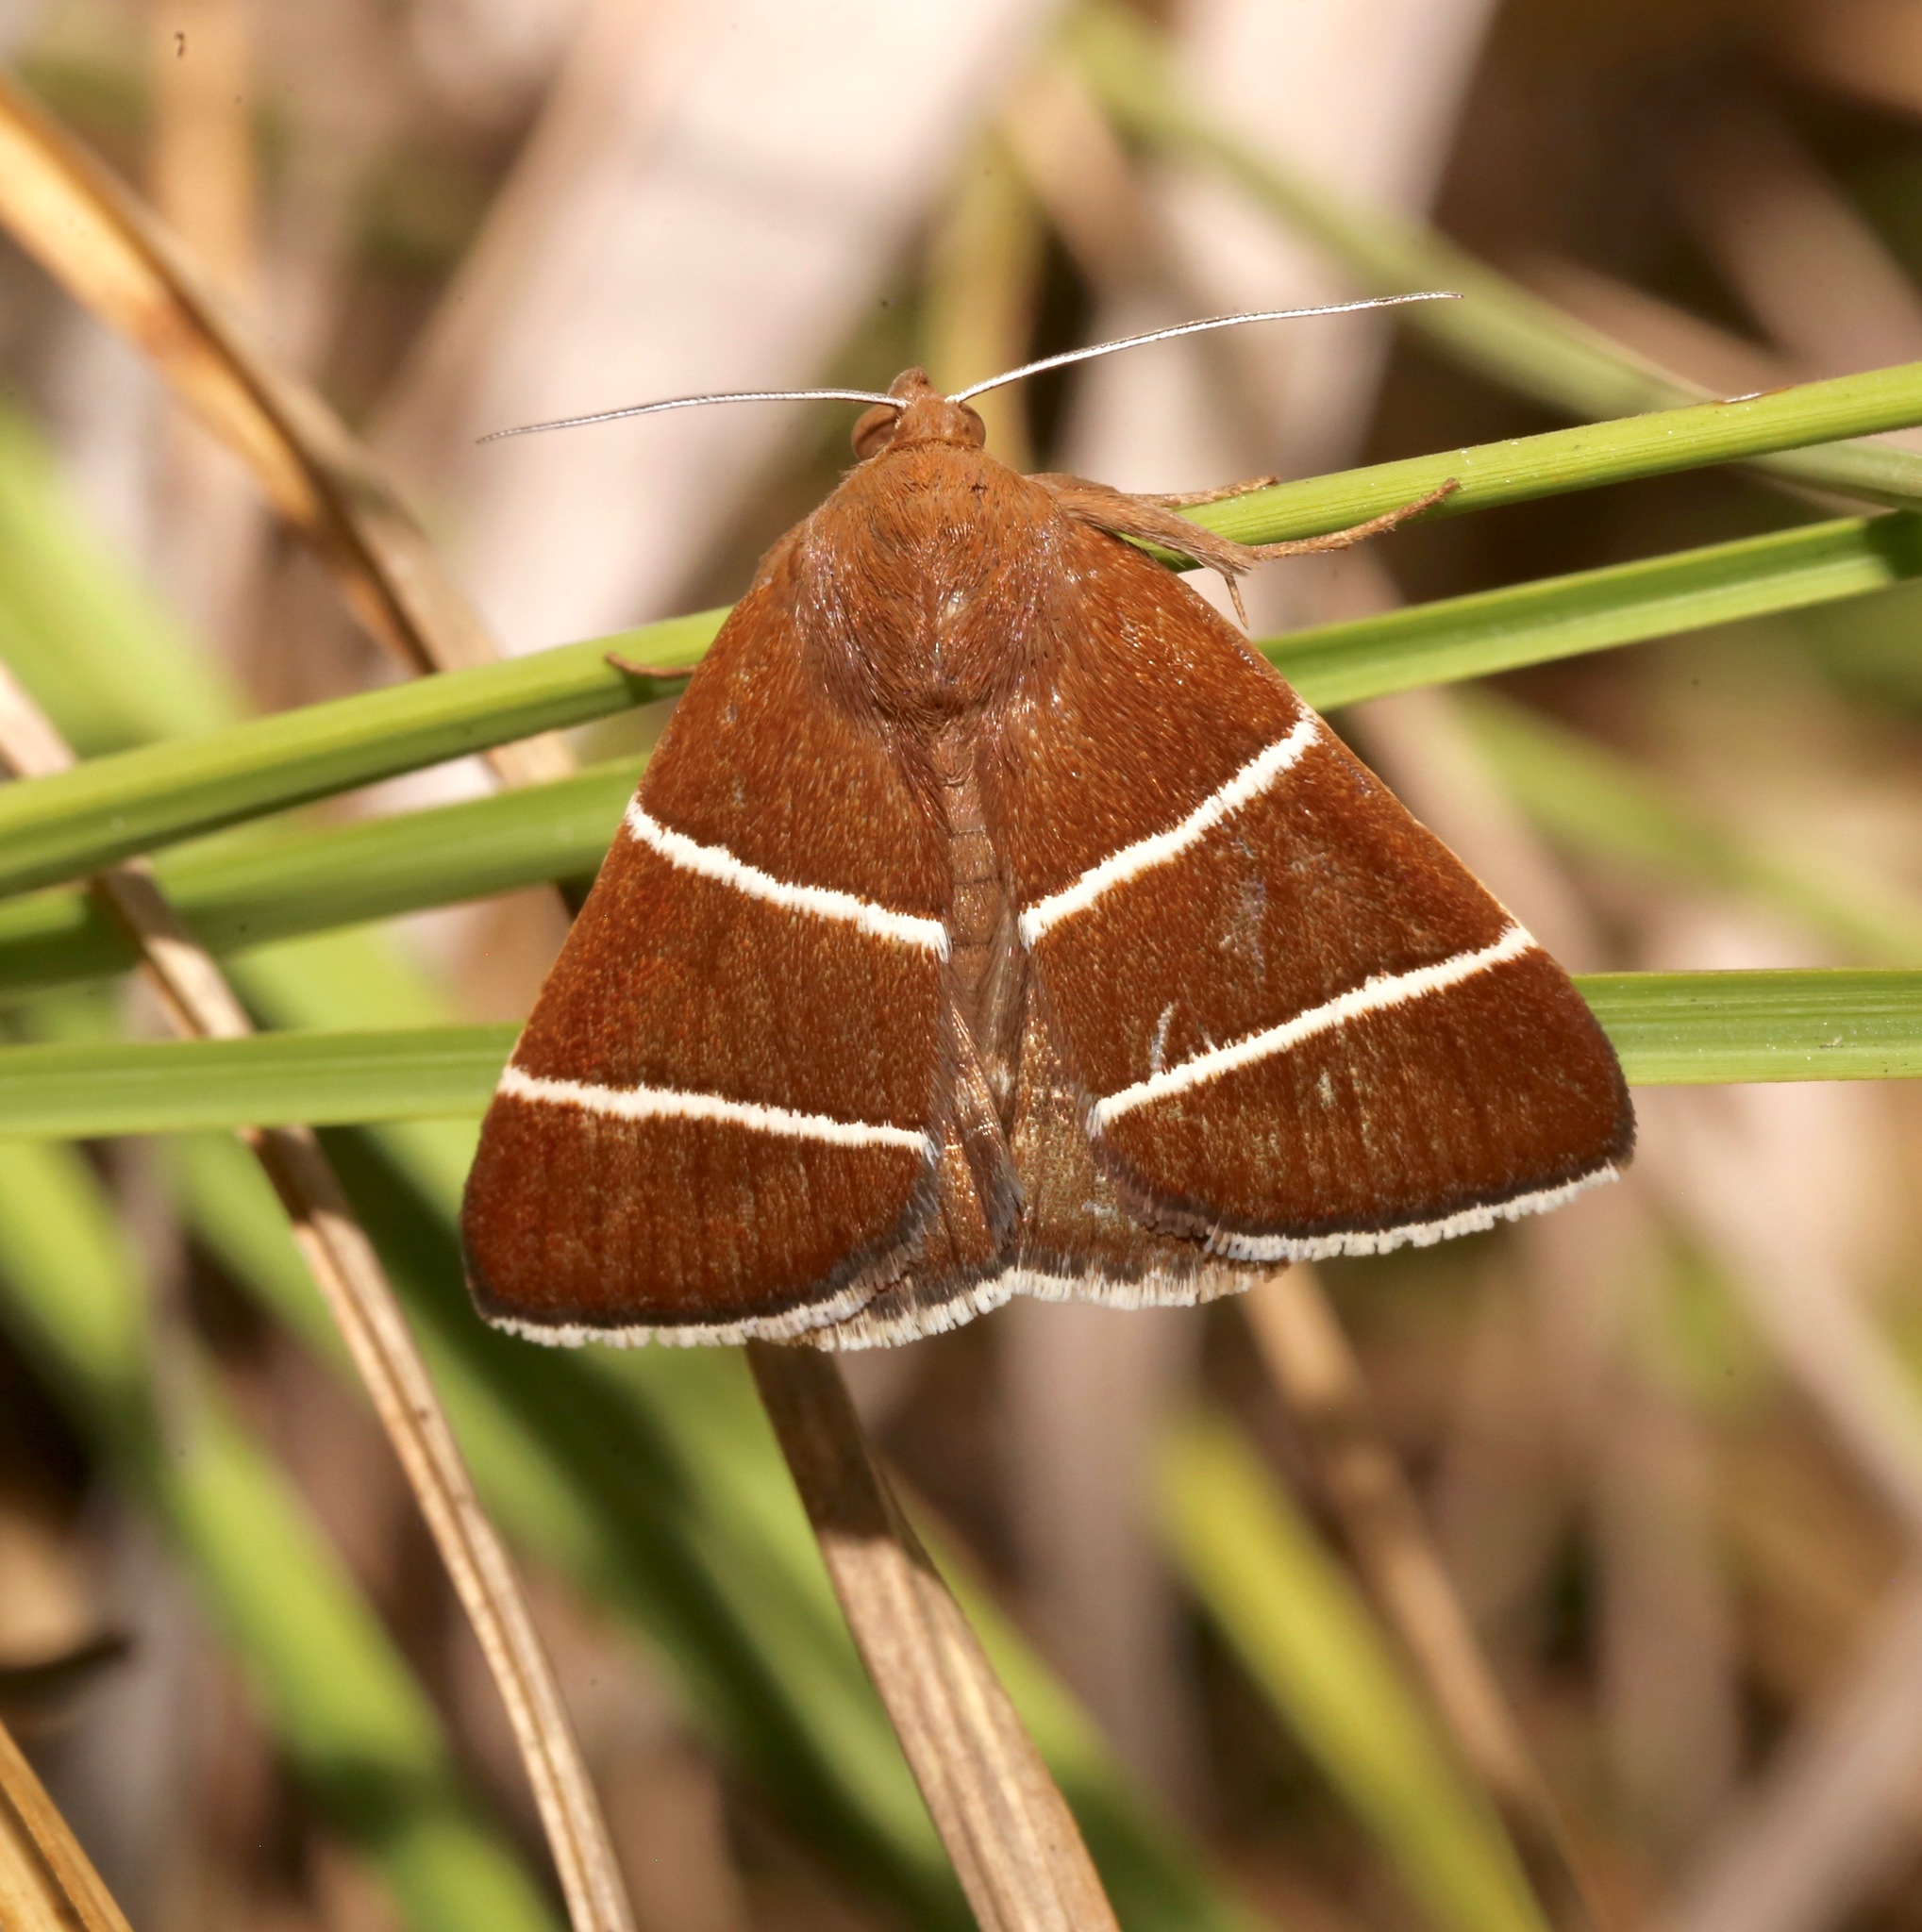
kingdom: Animalia
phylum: Arthropoda
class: Insecta
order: Lepidoptera
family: Erebidae
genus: Argyrostrotis
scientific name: Argyrostrotis quadrifilaris
